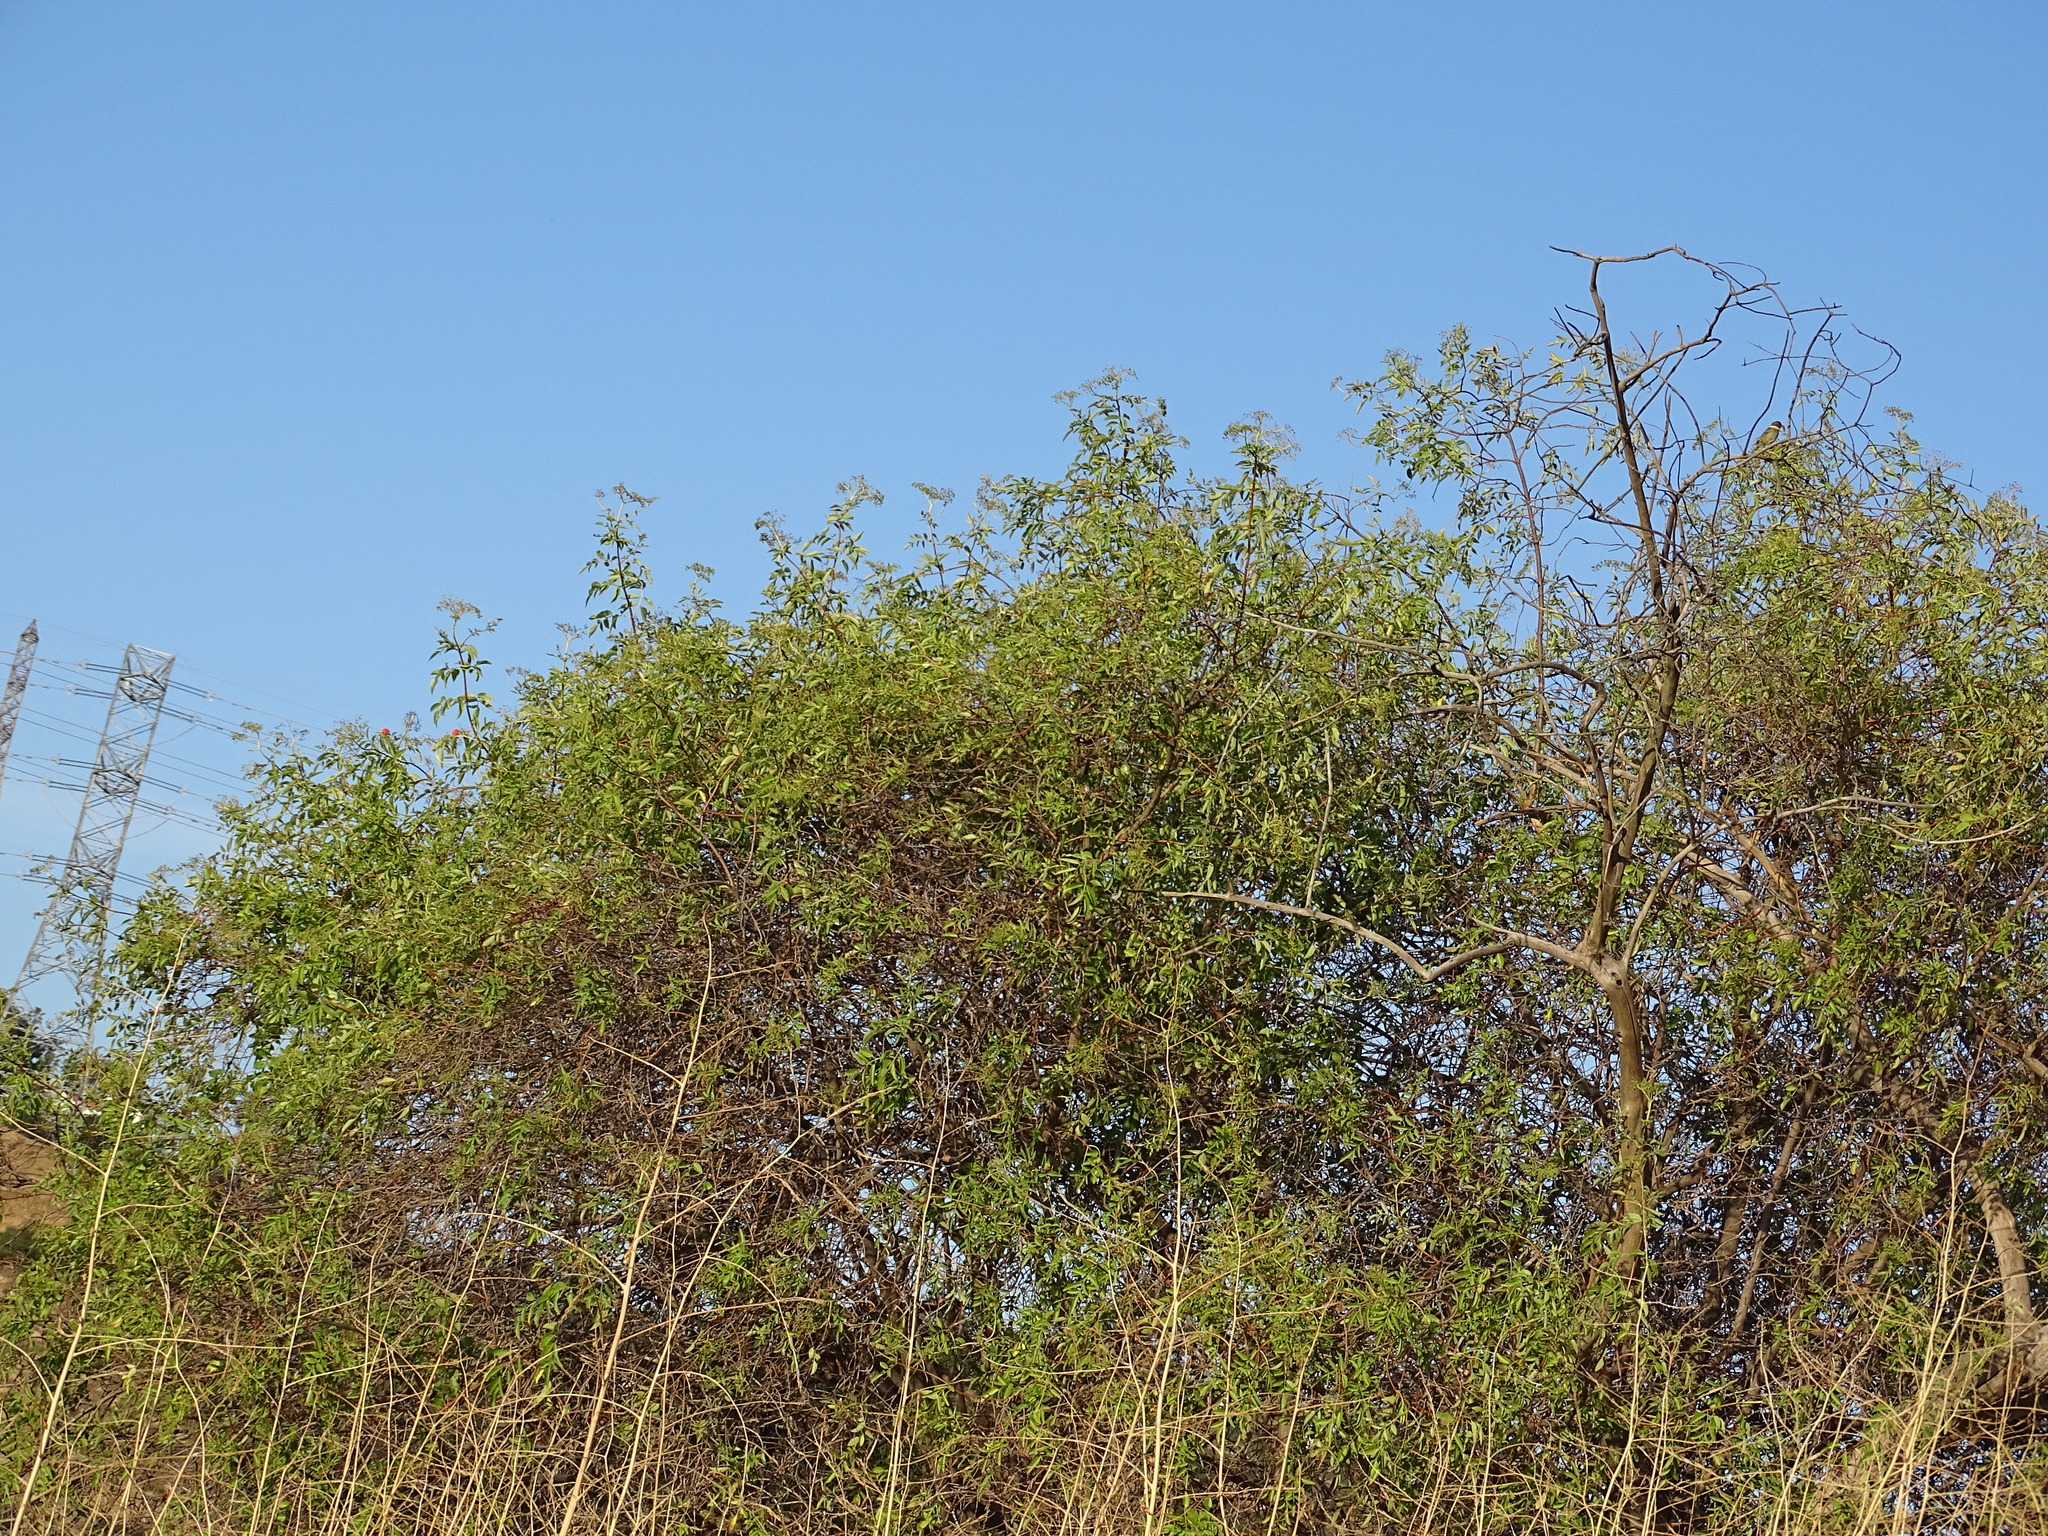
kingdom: Plantae
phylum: Tracheophyta
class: Magnoliopsida
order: Dipsacales
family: Viburnaceae
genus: Sambucus
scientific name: Sambucus cerulea
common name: Blue elder
